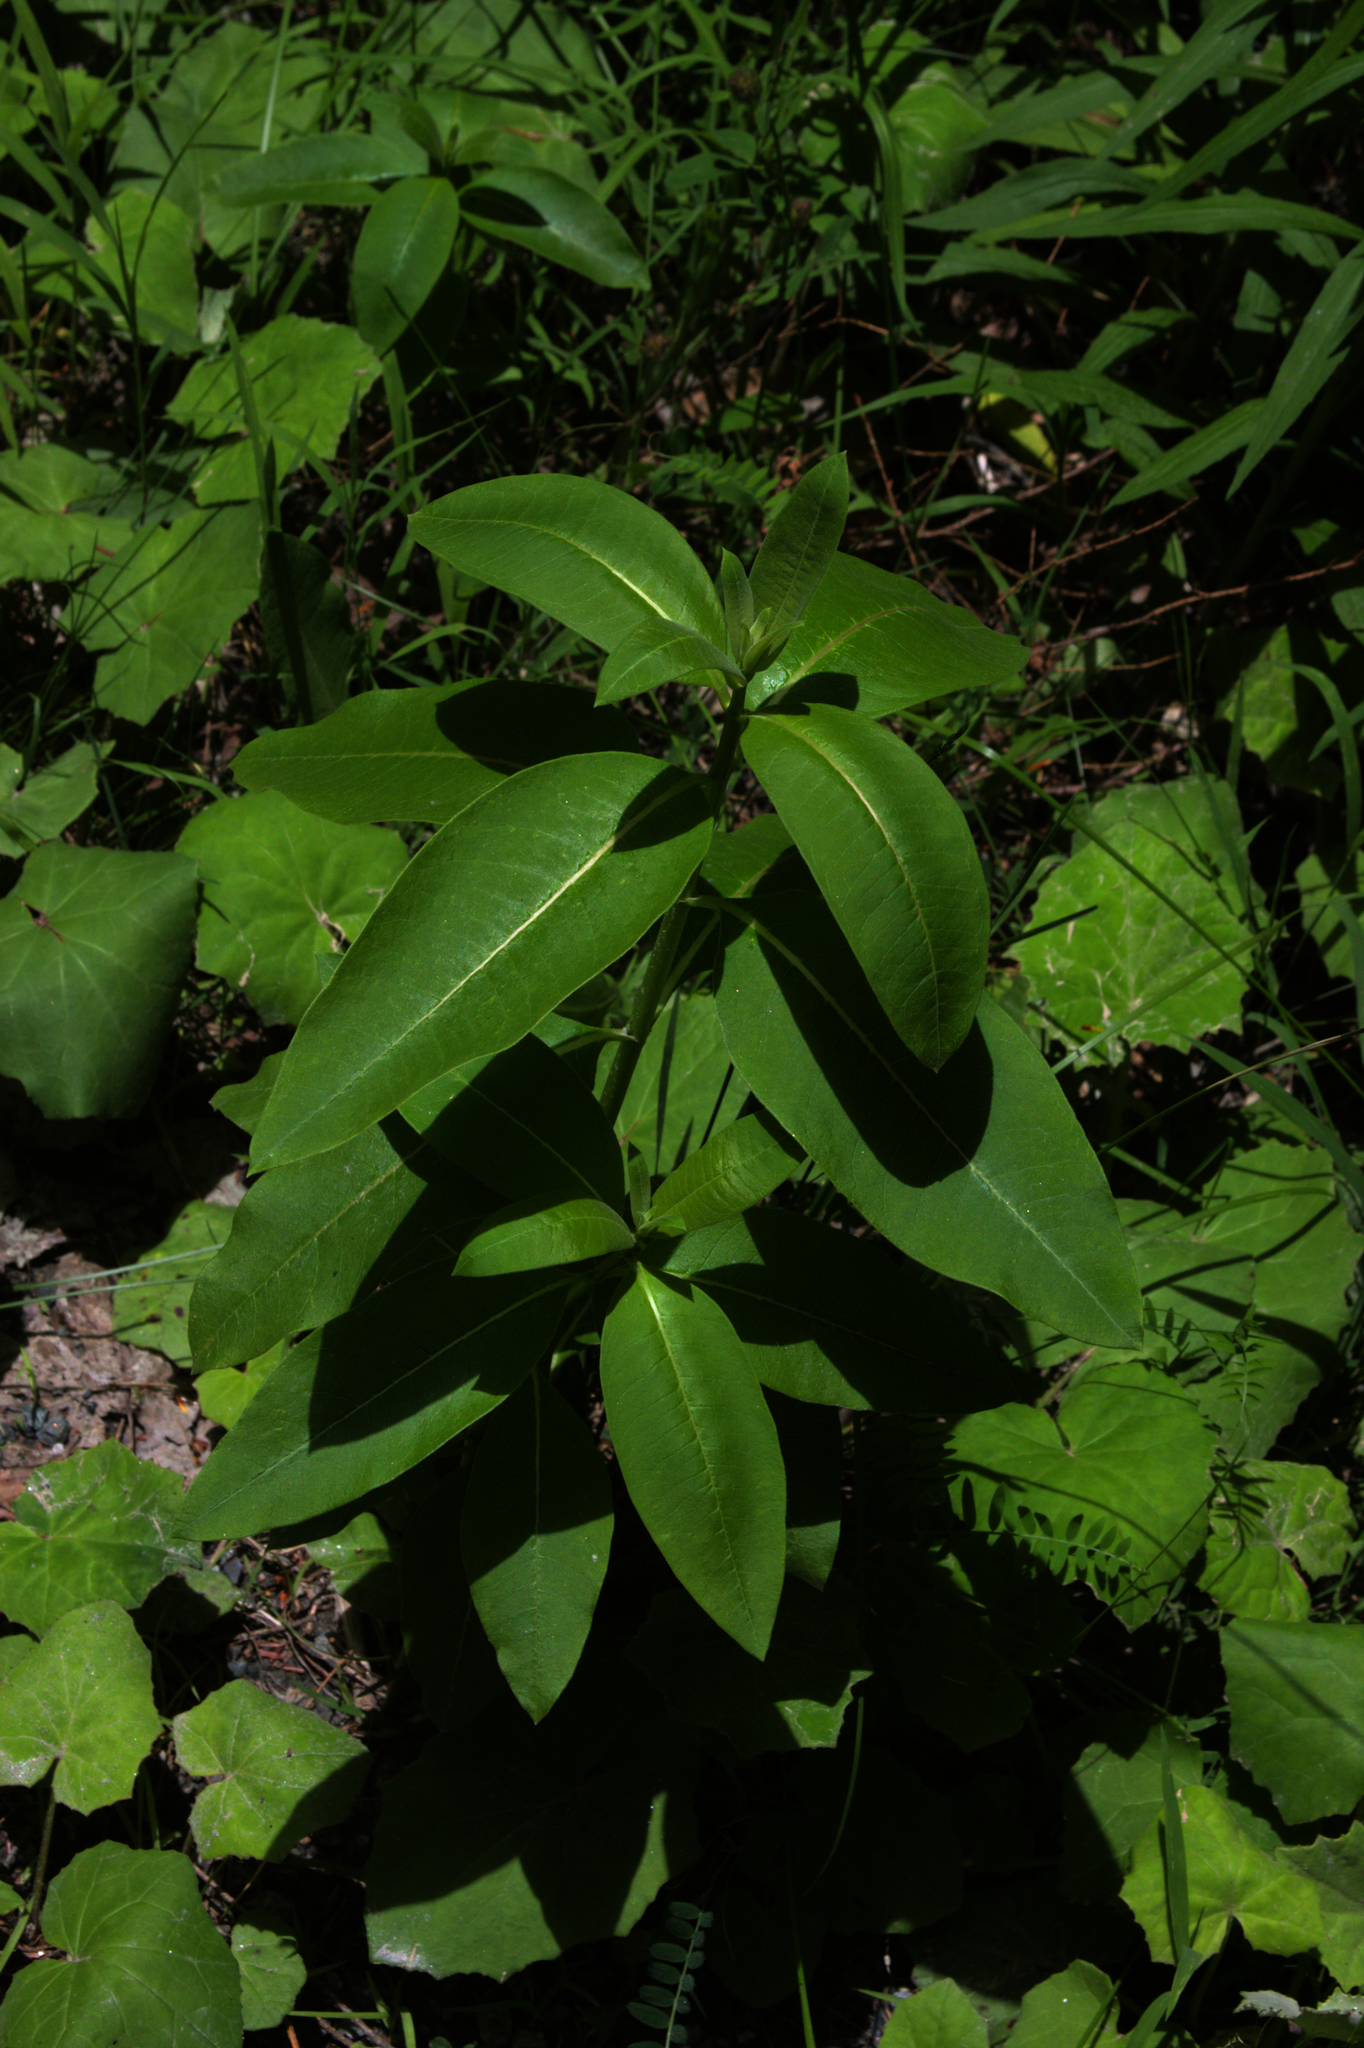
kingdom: Plantae
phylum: Tracheophyta
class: Magnoliopsida
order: Gentianales
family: Apocynaceae
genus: Asclepias
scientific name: Asclepias syriaca
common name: Common milkweed
